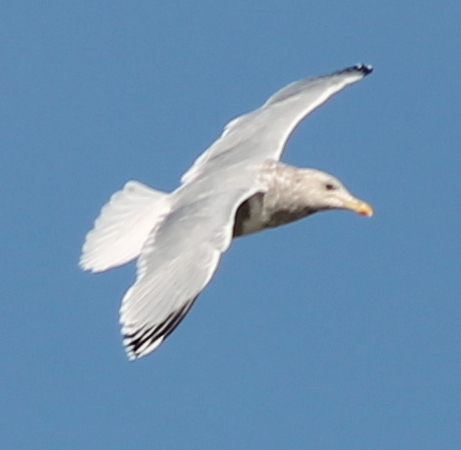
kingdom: Animalia
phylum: Chordata
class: Aves
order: Charadriiformes
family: Laridae
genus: Larus
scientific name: Larus argentatus
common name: Herring gull
